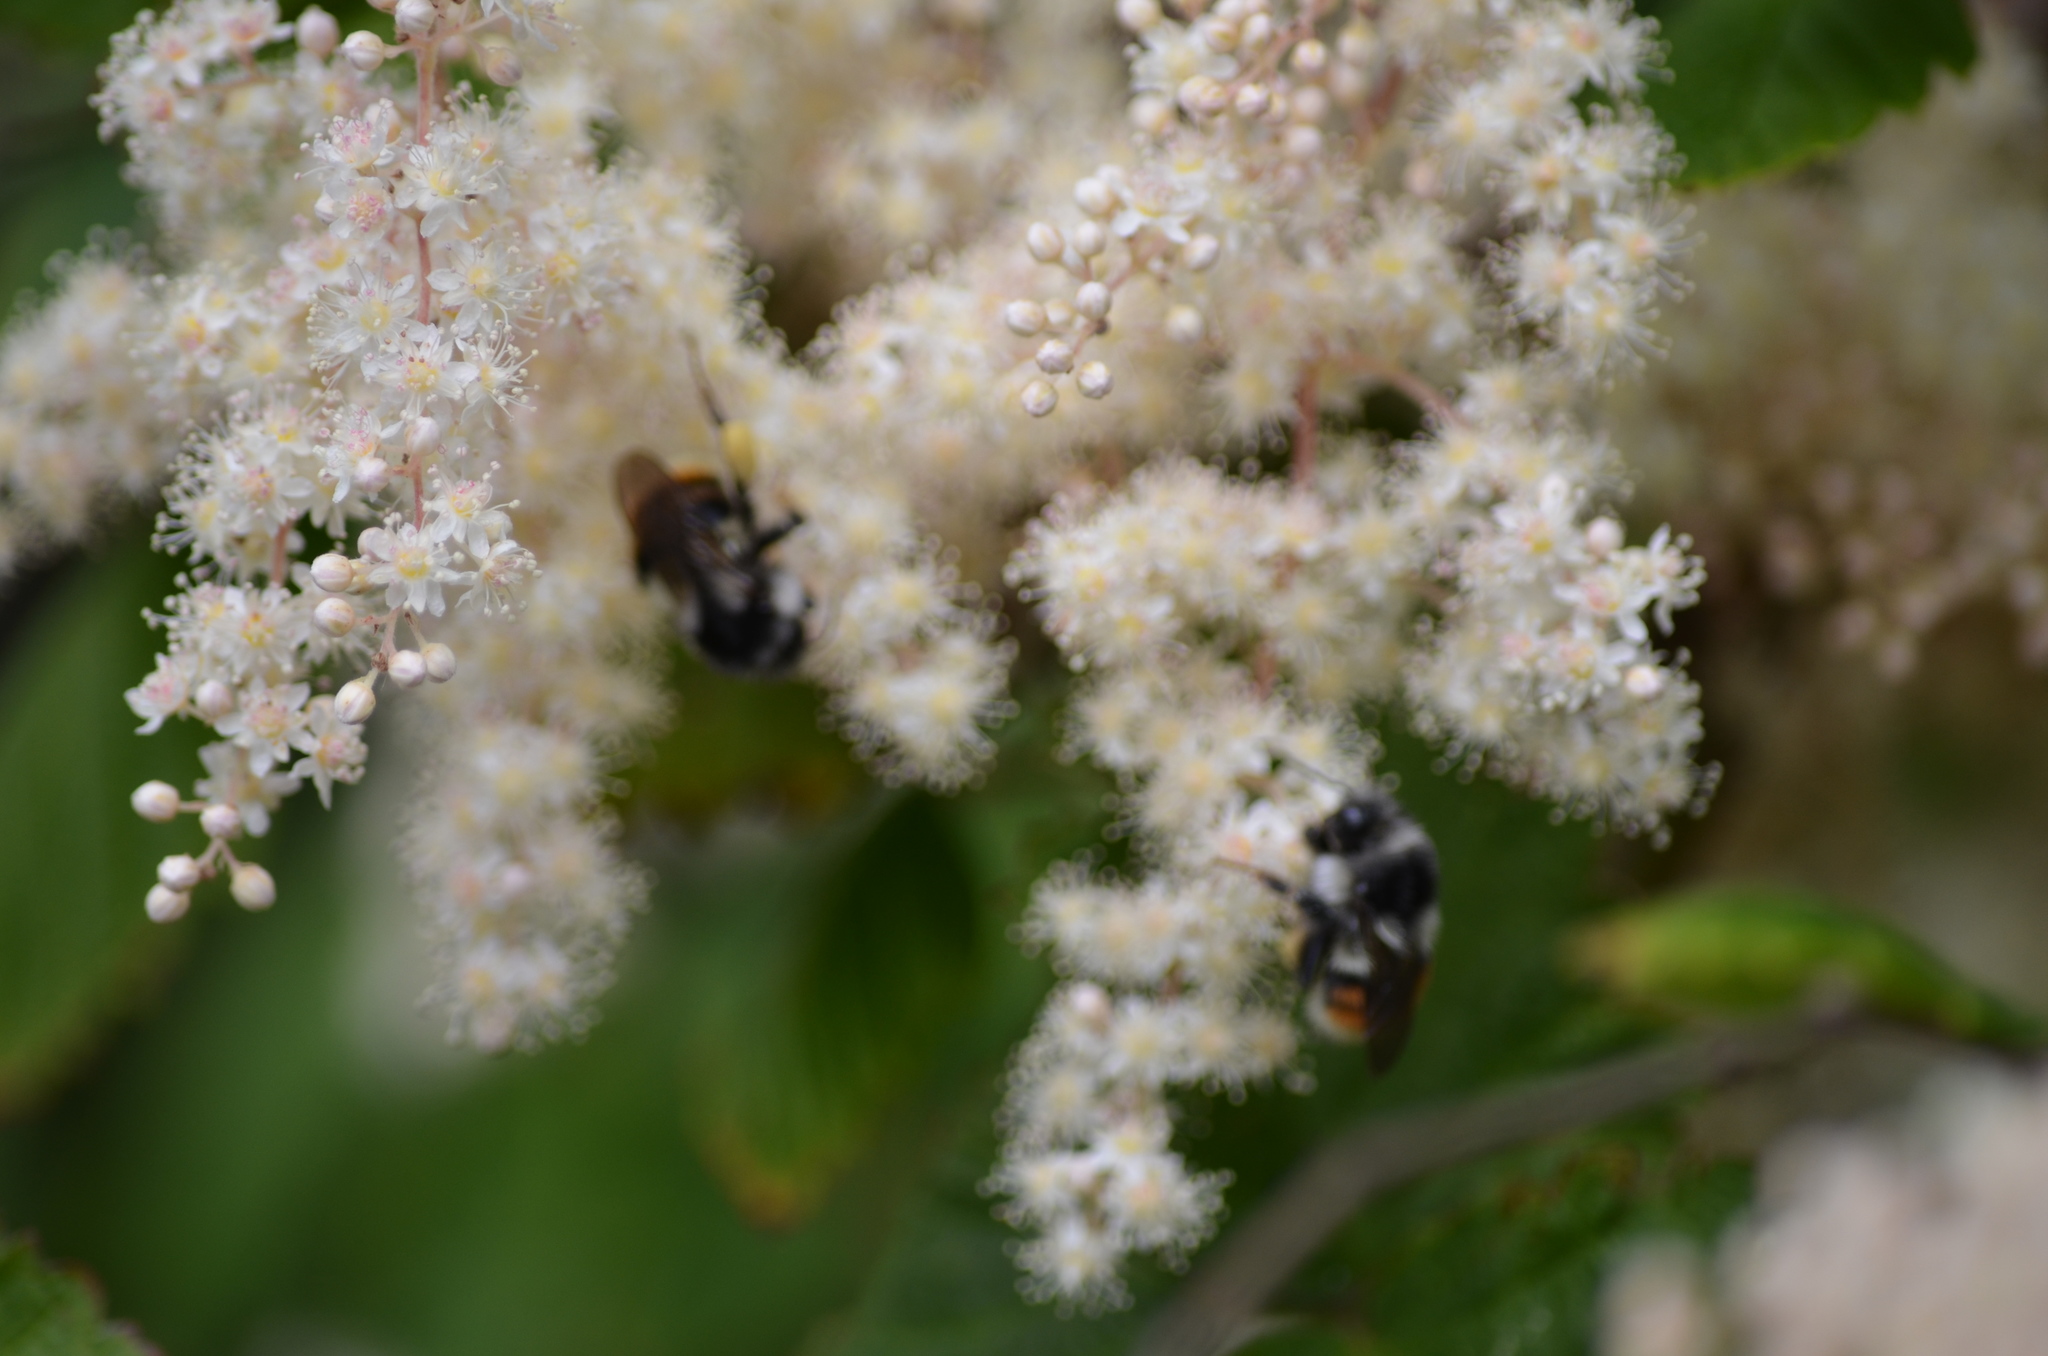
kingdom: Animalia
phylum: Arthropoda
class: Insecta
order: Hymenoptera
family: Apidae
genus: Bombus
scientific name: Bombus vancouverensis
